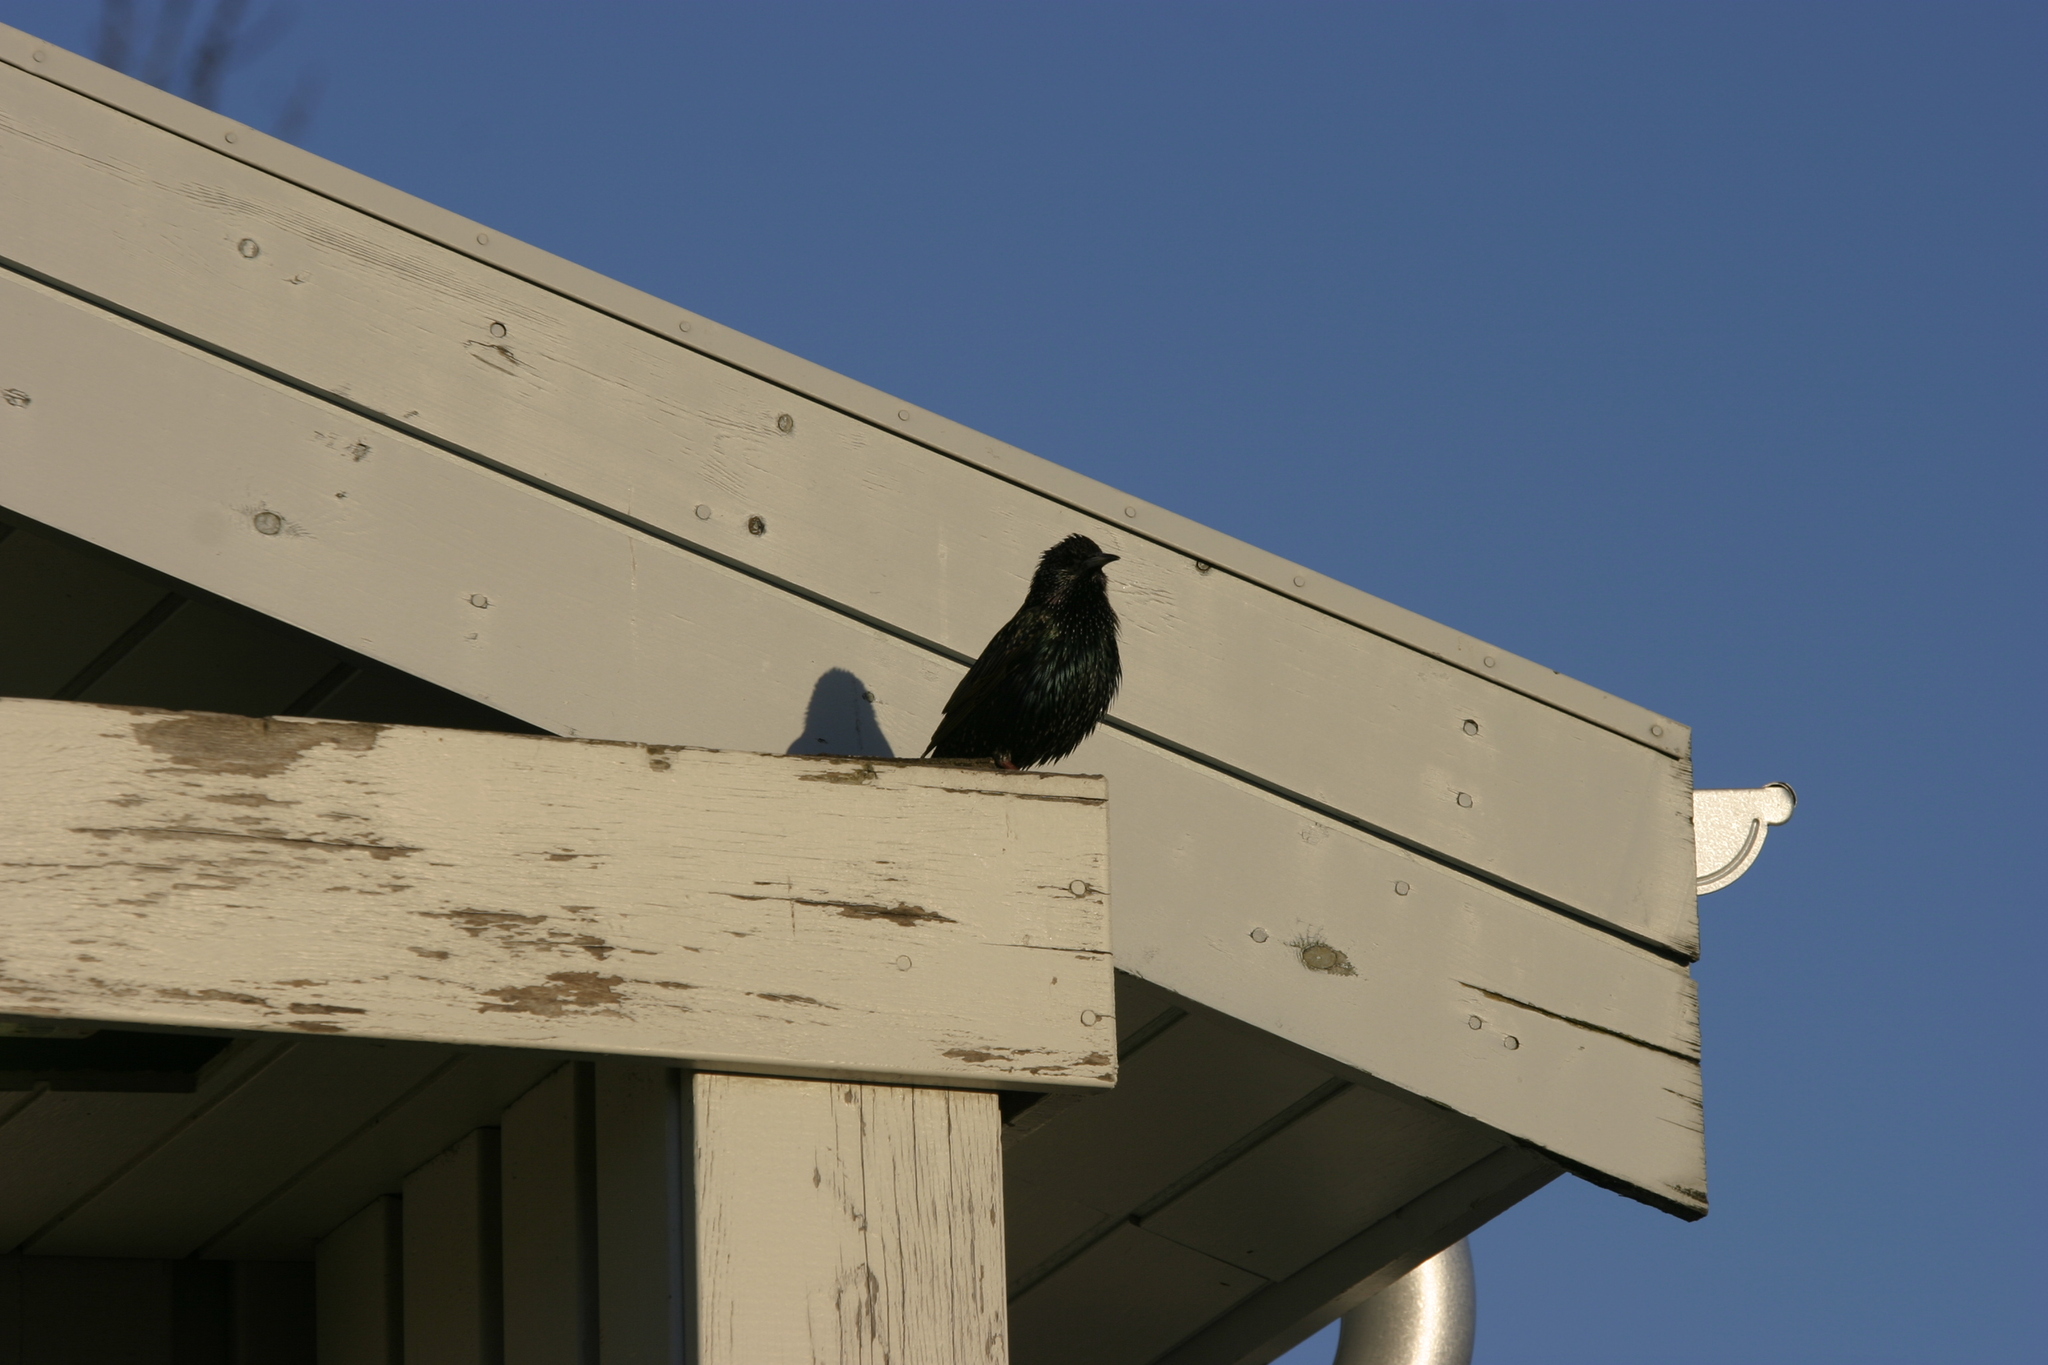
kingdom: Animalia
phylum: Chordata
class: Aves
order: Passeriformes
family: Sturnidae
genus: Sturnus
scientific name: Sturnus vulgaris
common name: Common starling
